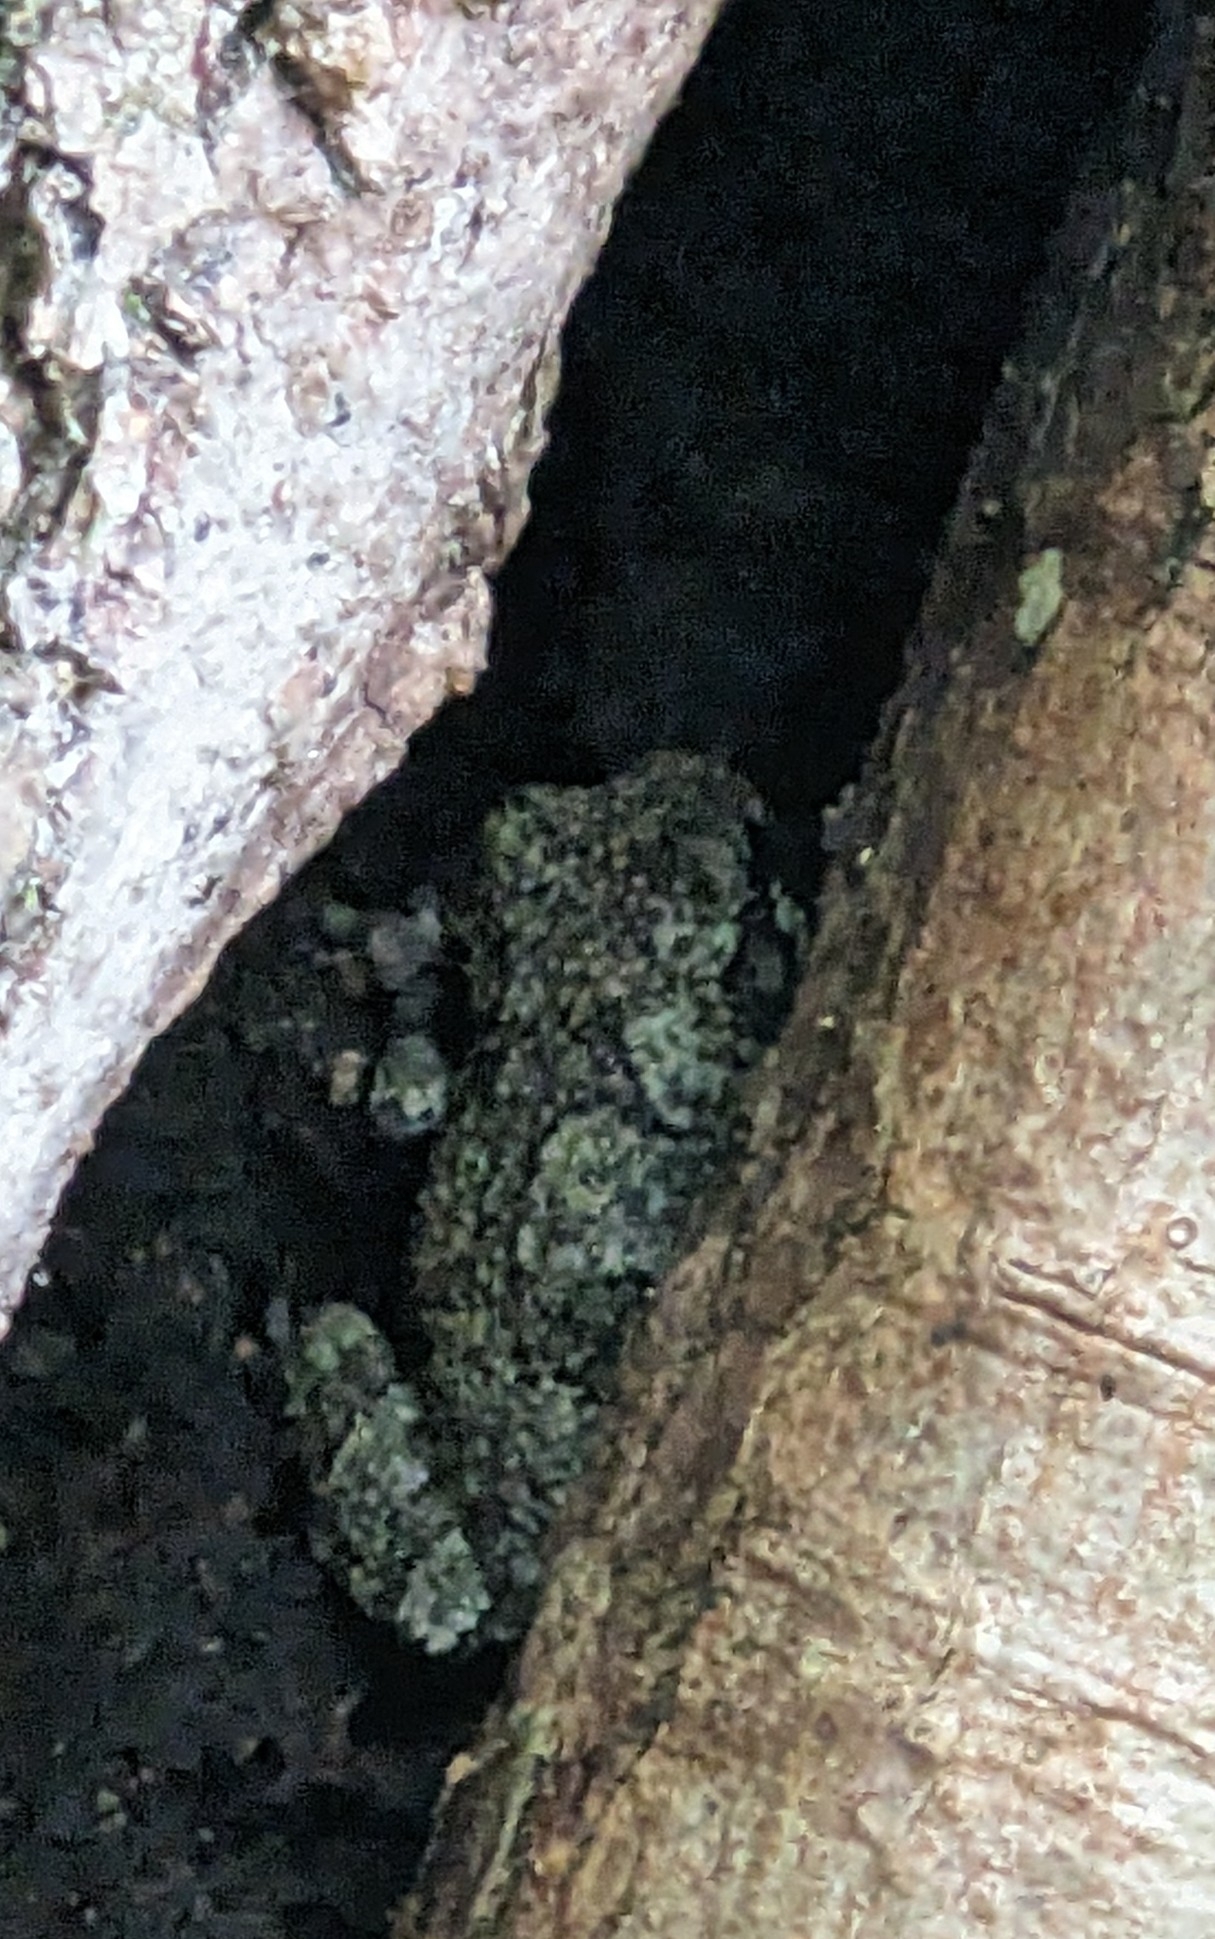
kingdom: Animalia
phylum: Chordata
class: Amphibia
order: Anura
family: Hylidae
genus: Dryophytes
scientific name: Dryophytes chrysoscelis
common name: Cope's gray treefrog
